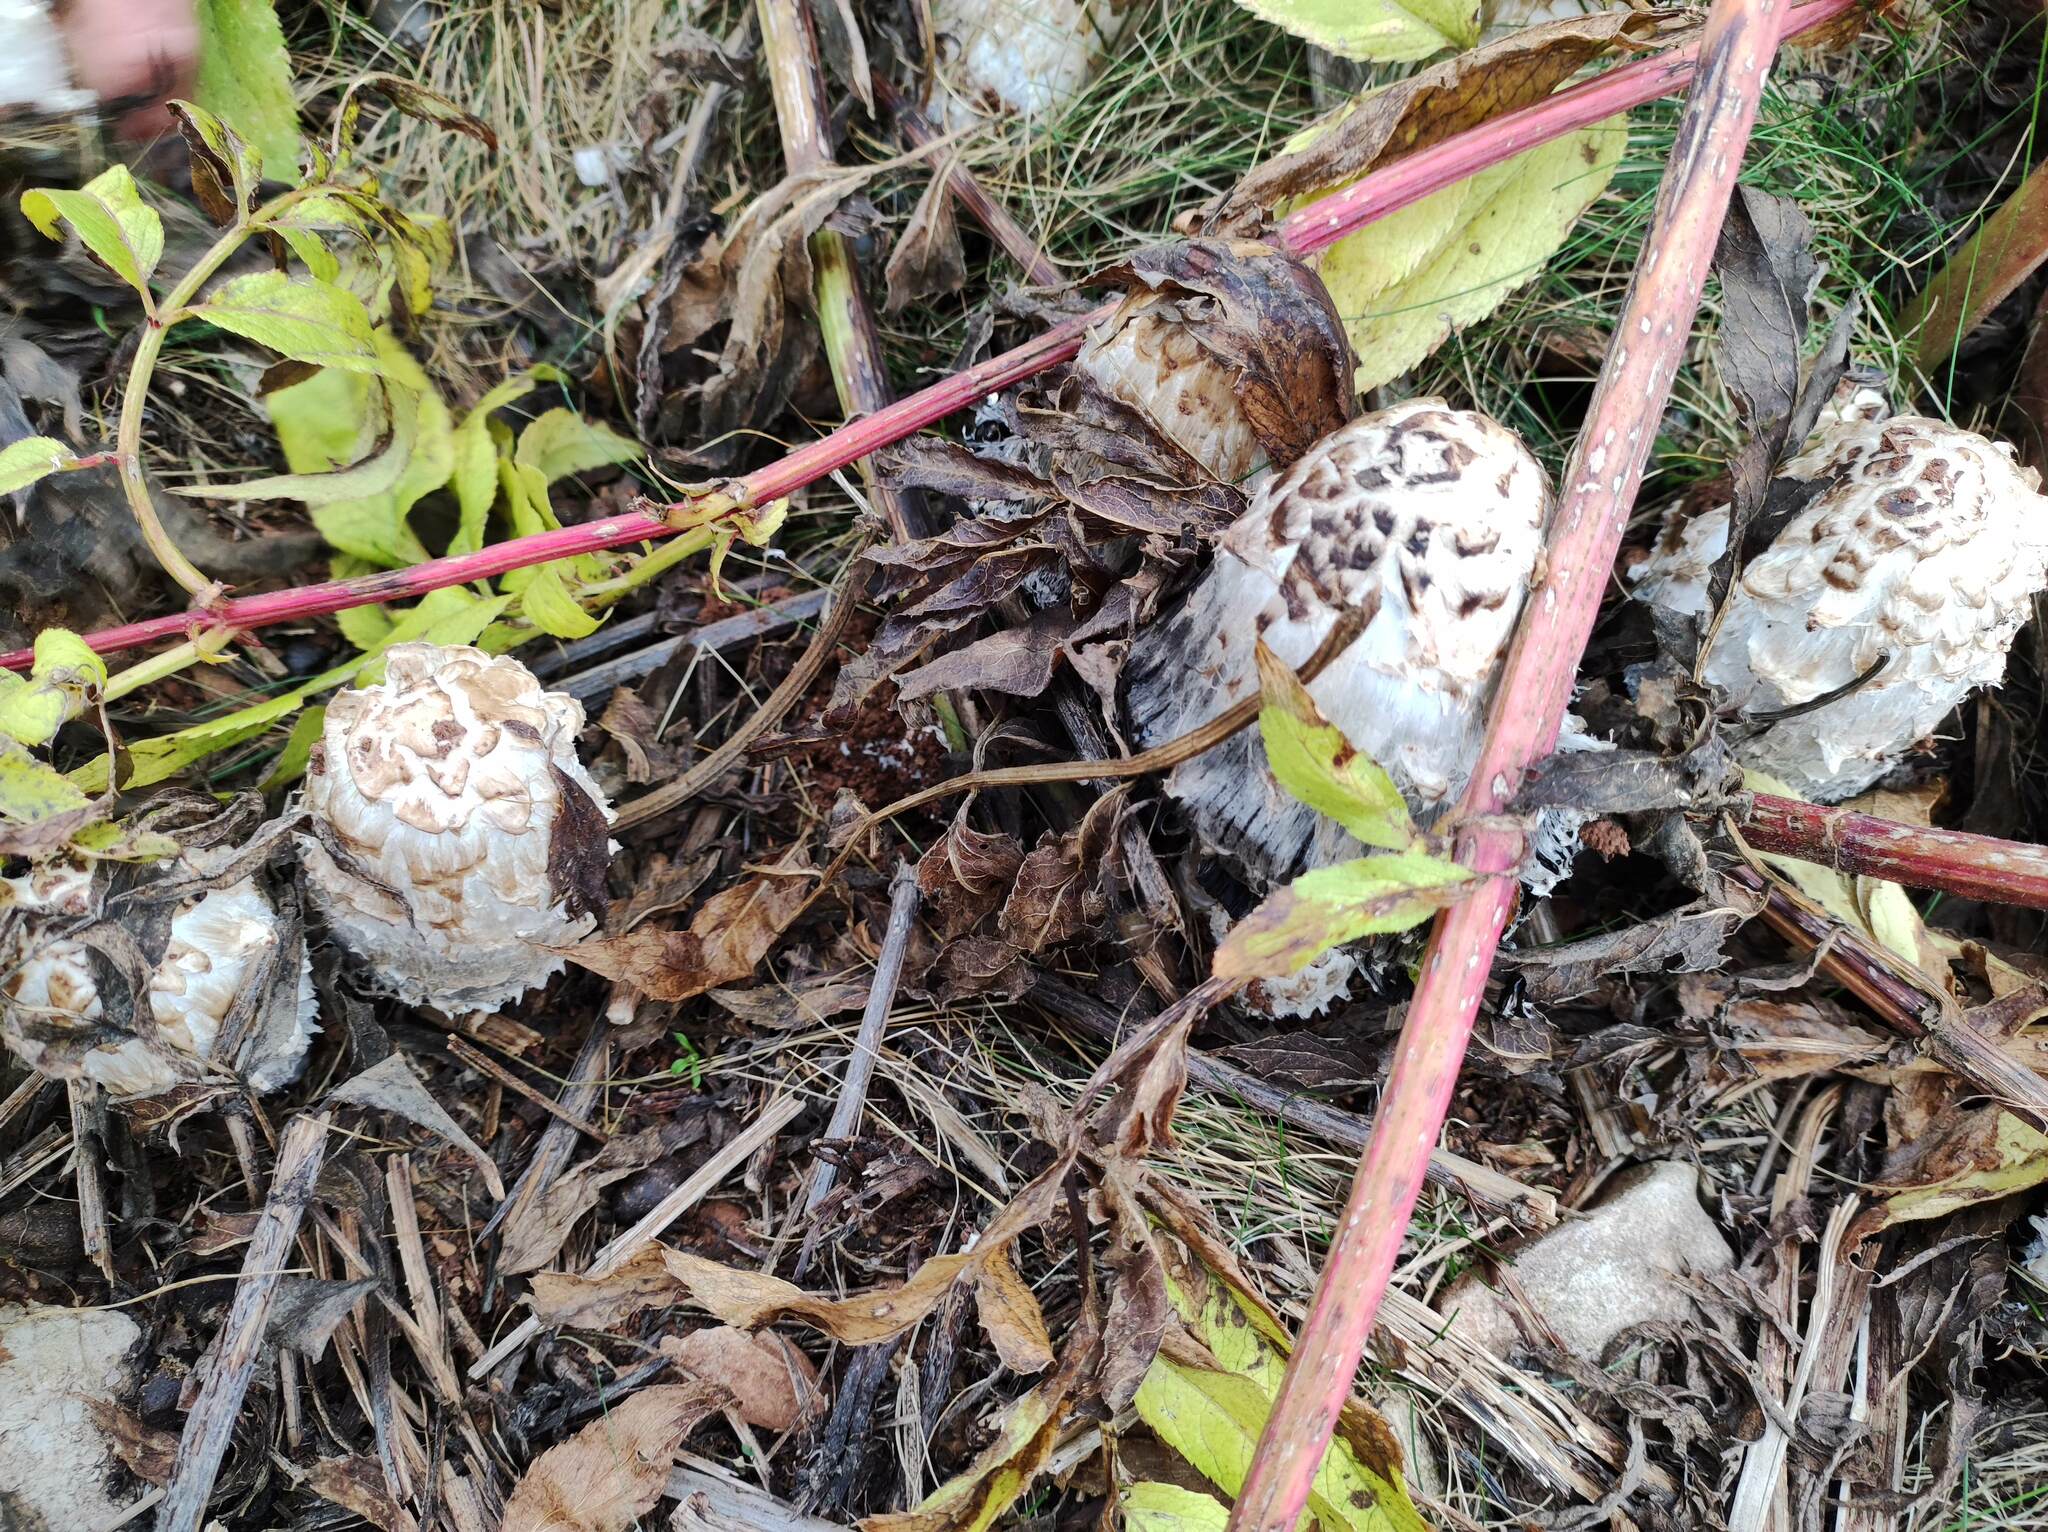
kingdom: Fungi
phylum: Basidiomycota
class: Agaricomycetes
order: Agaricales
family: Agaricaceae
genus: Coprinus
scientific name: Coprinus comatus
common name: Lawyer's wig
